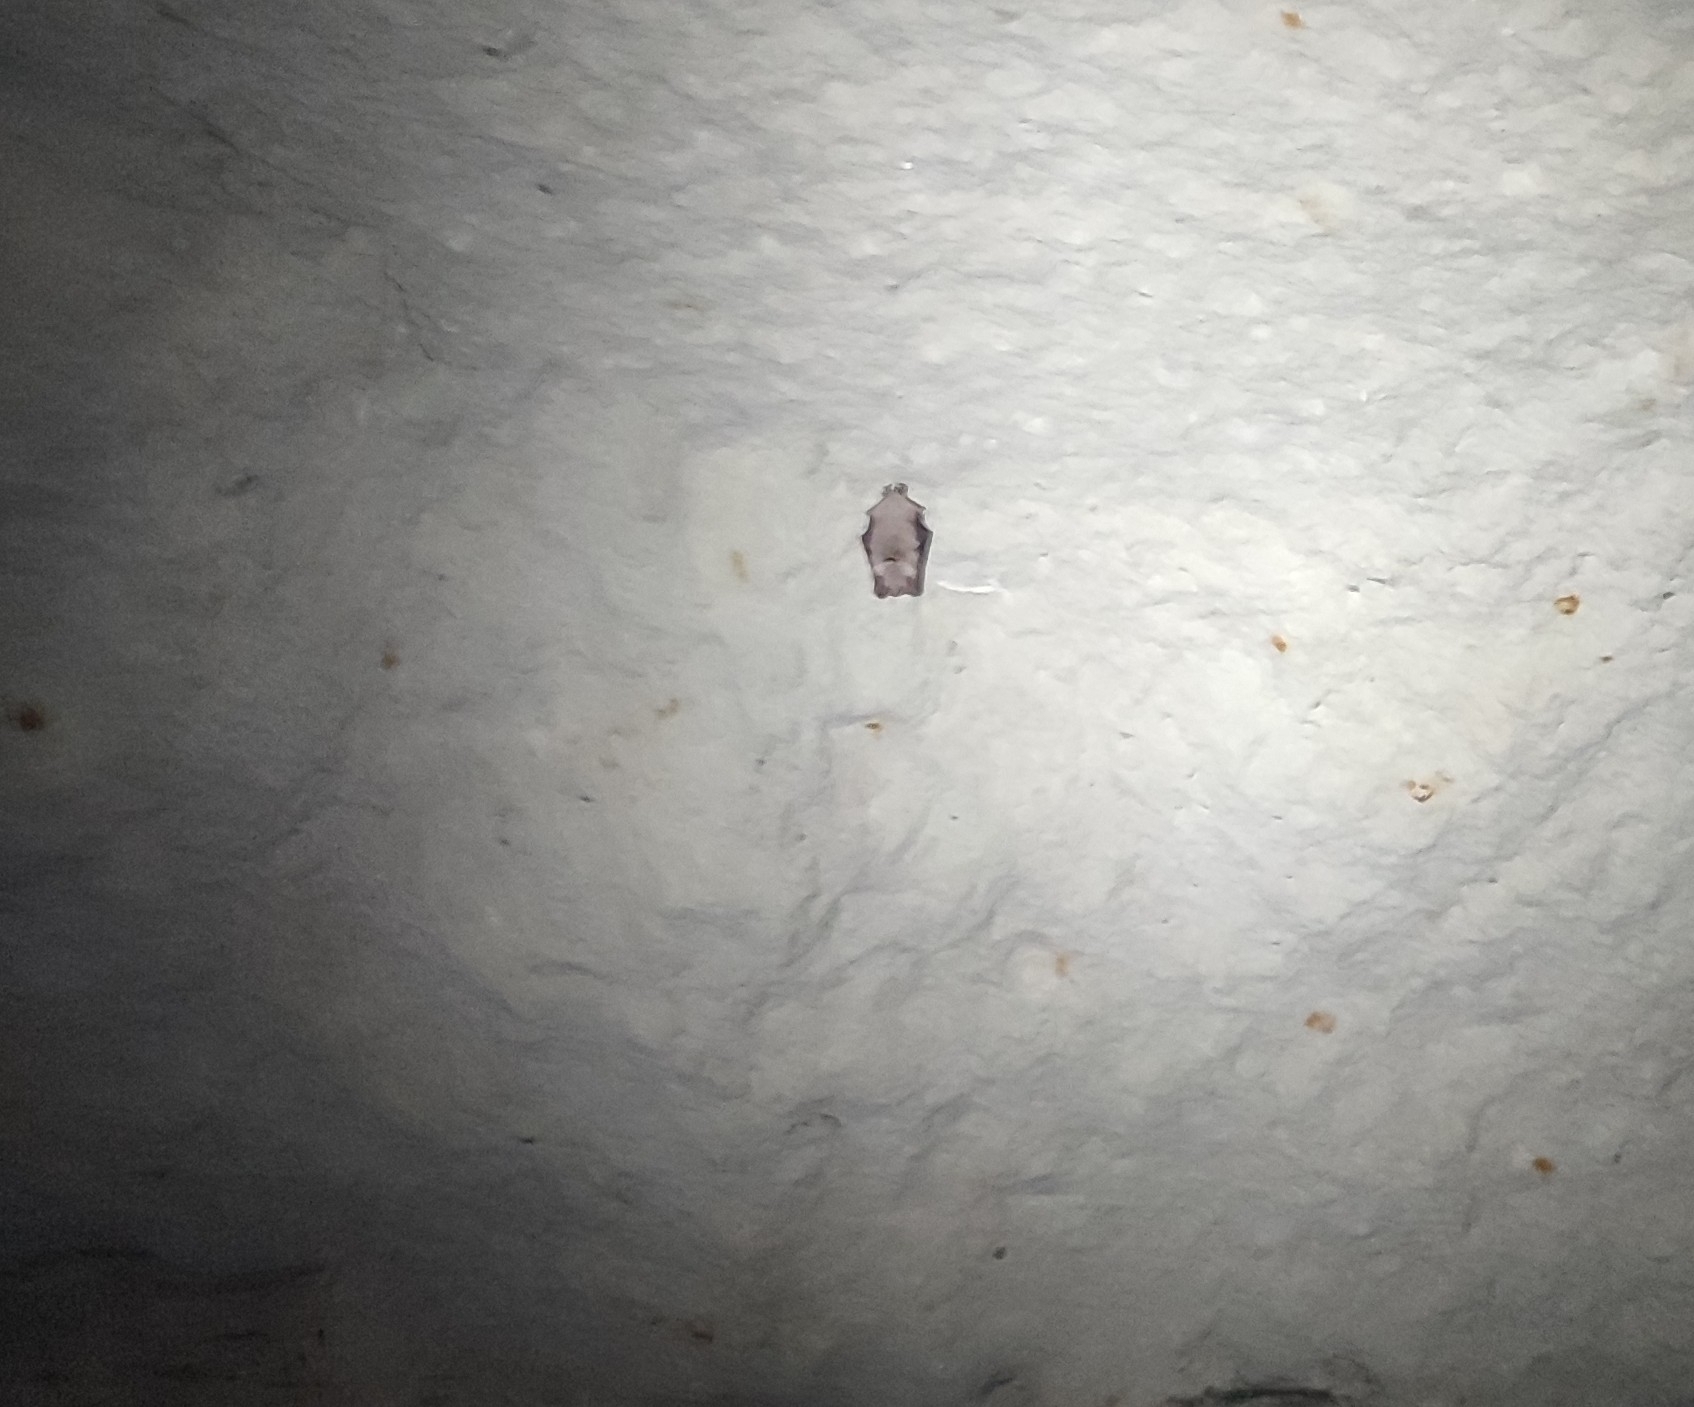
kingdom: Animalia
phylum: Chordata
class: Mammalia
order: Chiroptera
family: Vespertilionidae
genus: Myotis
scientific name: Myotis myotis
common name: Greater mouse-eared bat
